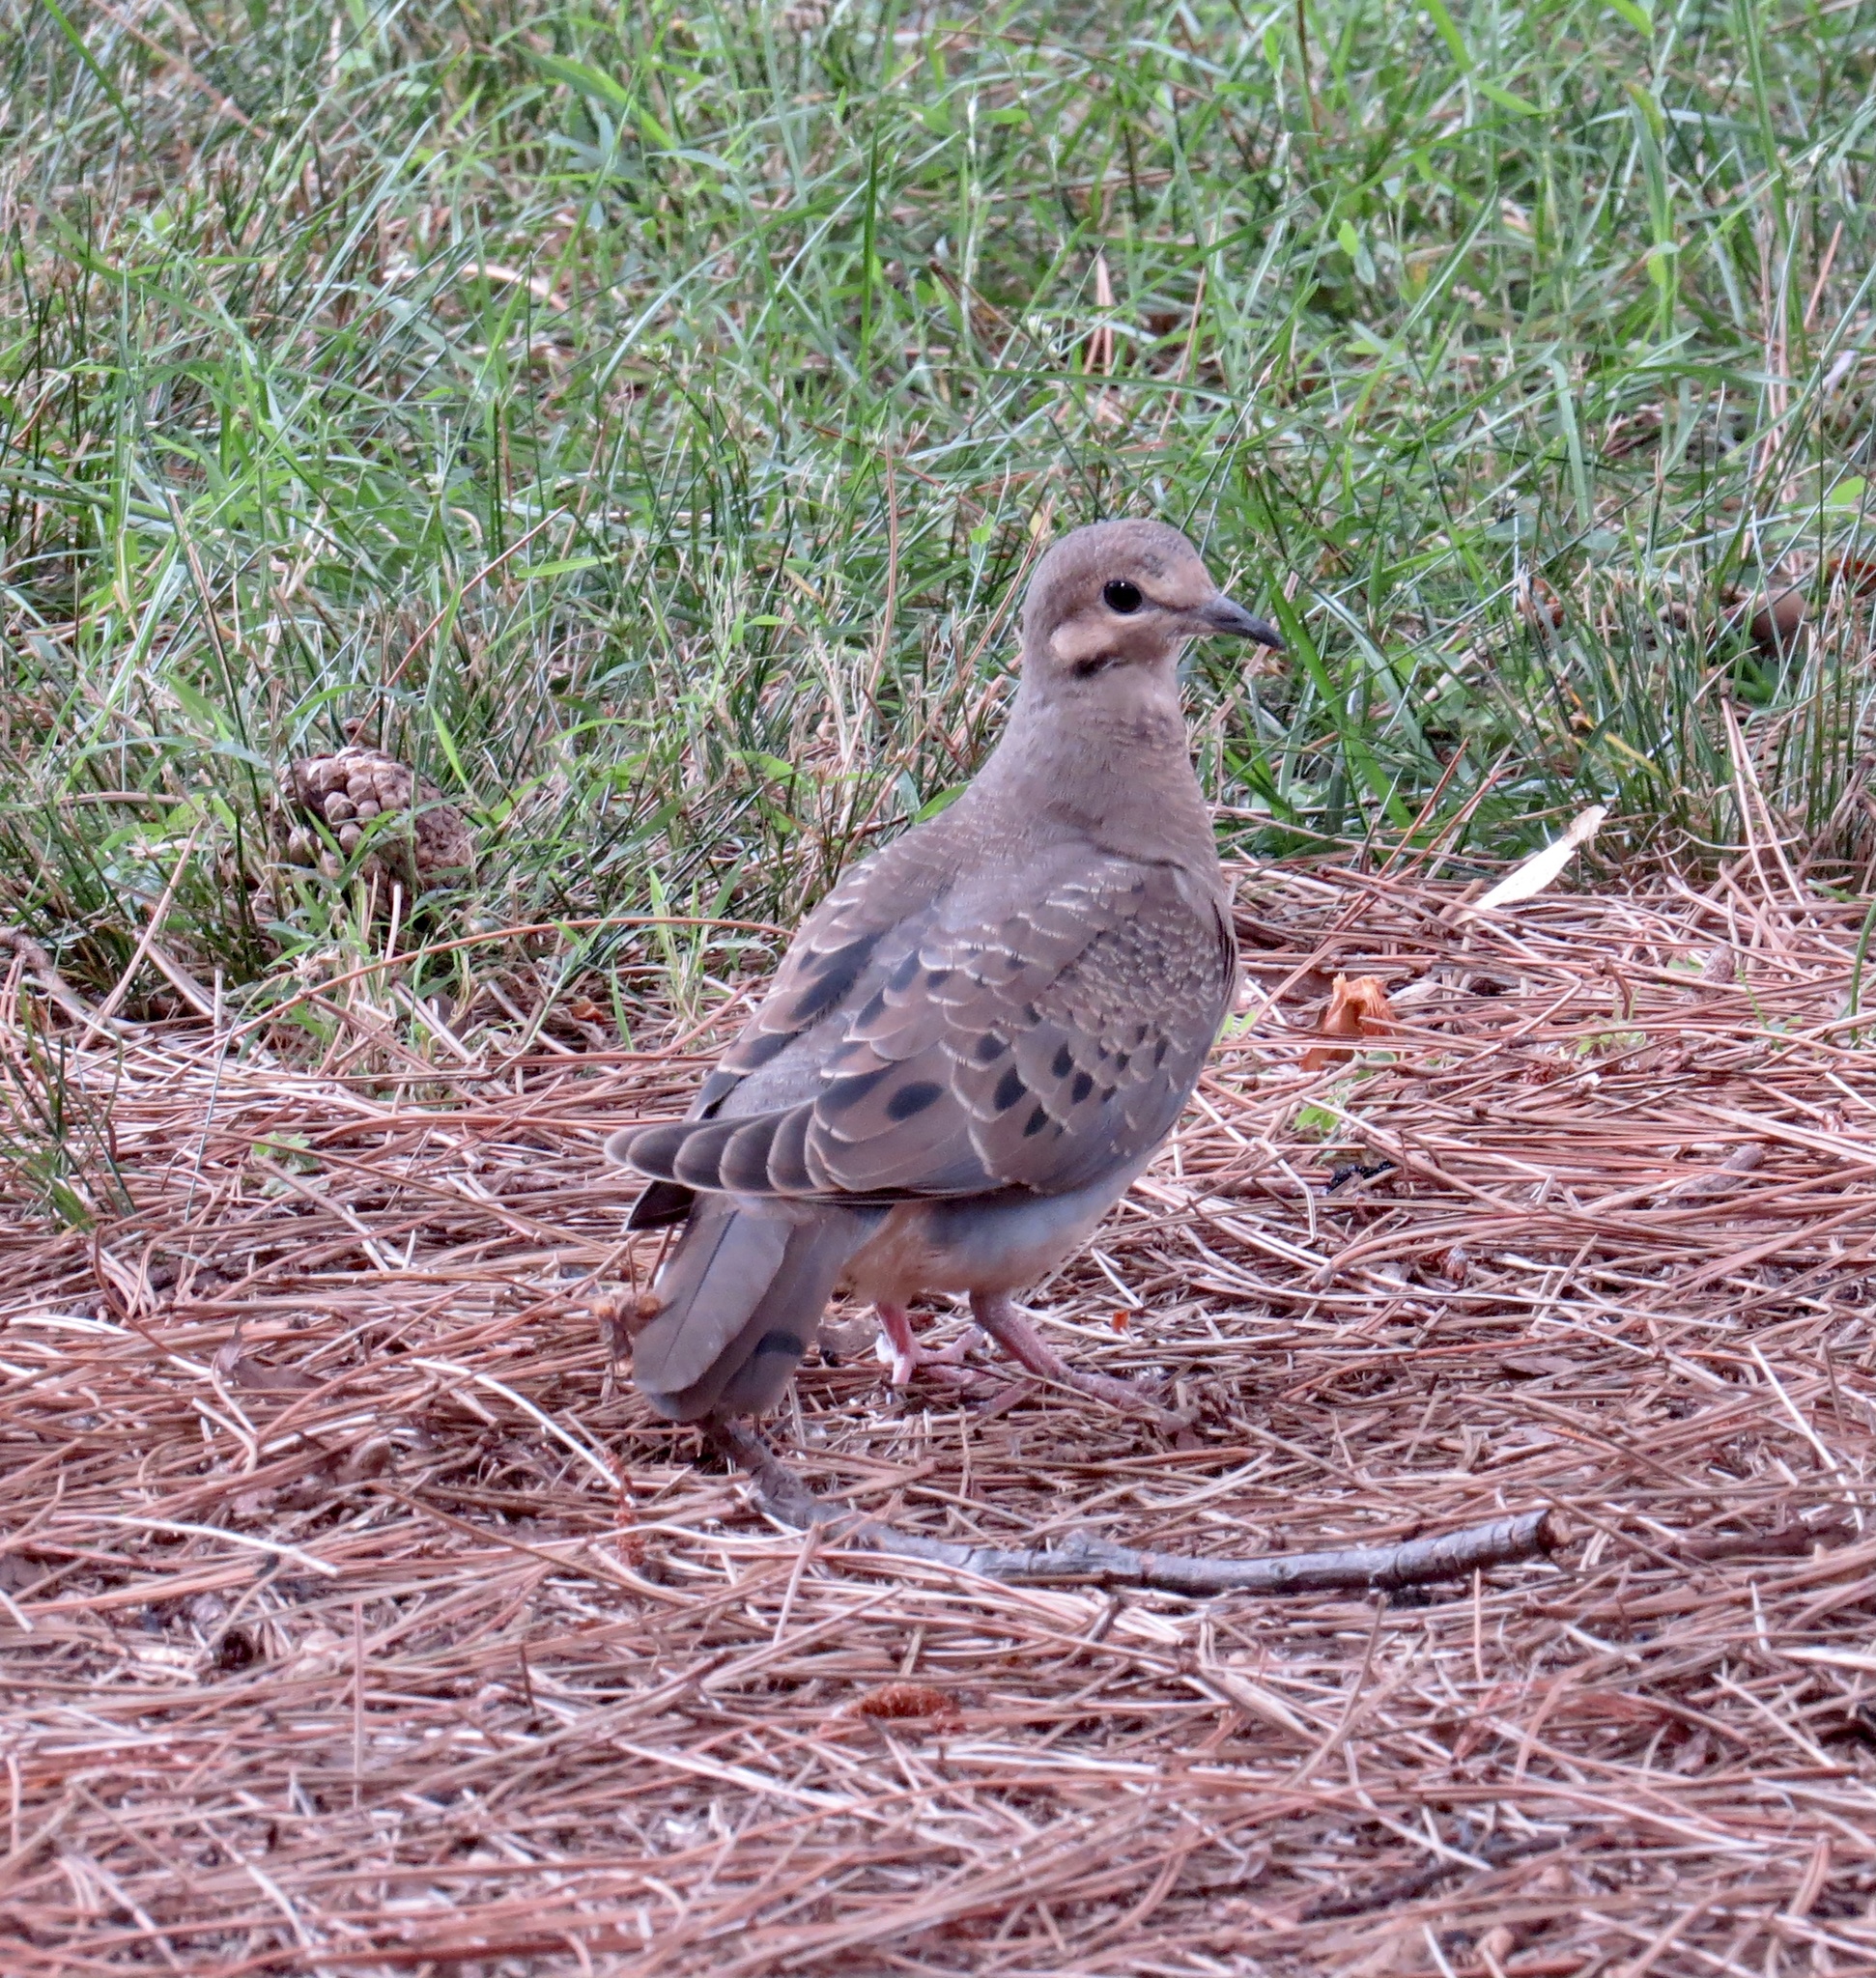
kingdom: Animalia
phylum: Chordata
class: Aves
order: Columbiformes
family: Columbidae
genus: Zenaida
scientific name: Zenaida macroura
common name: Mourning dove
